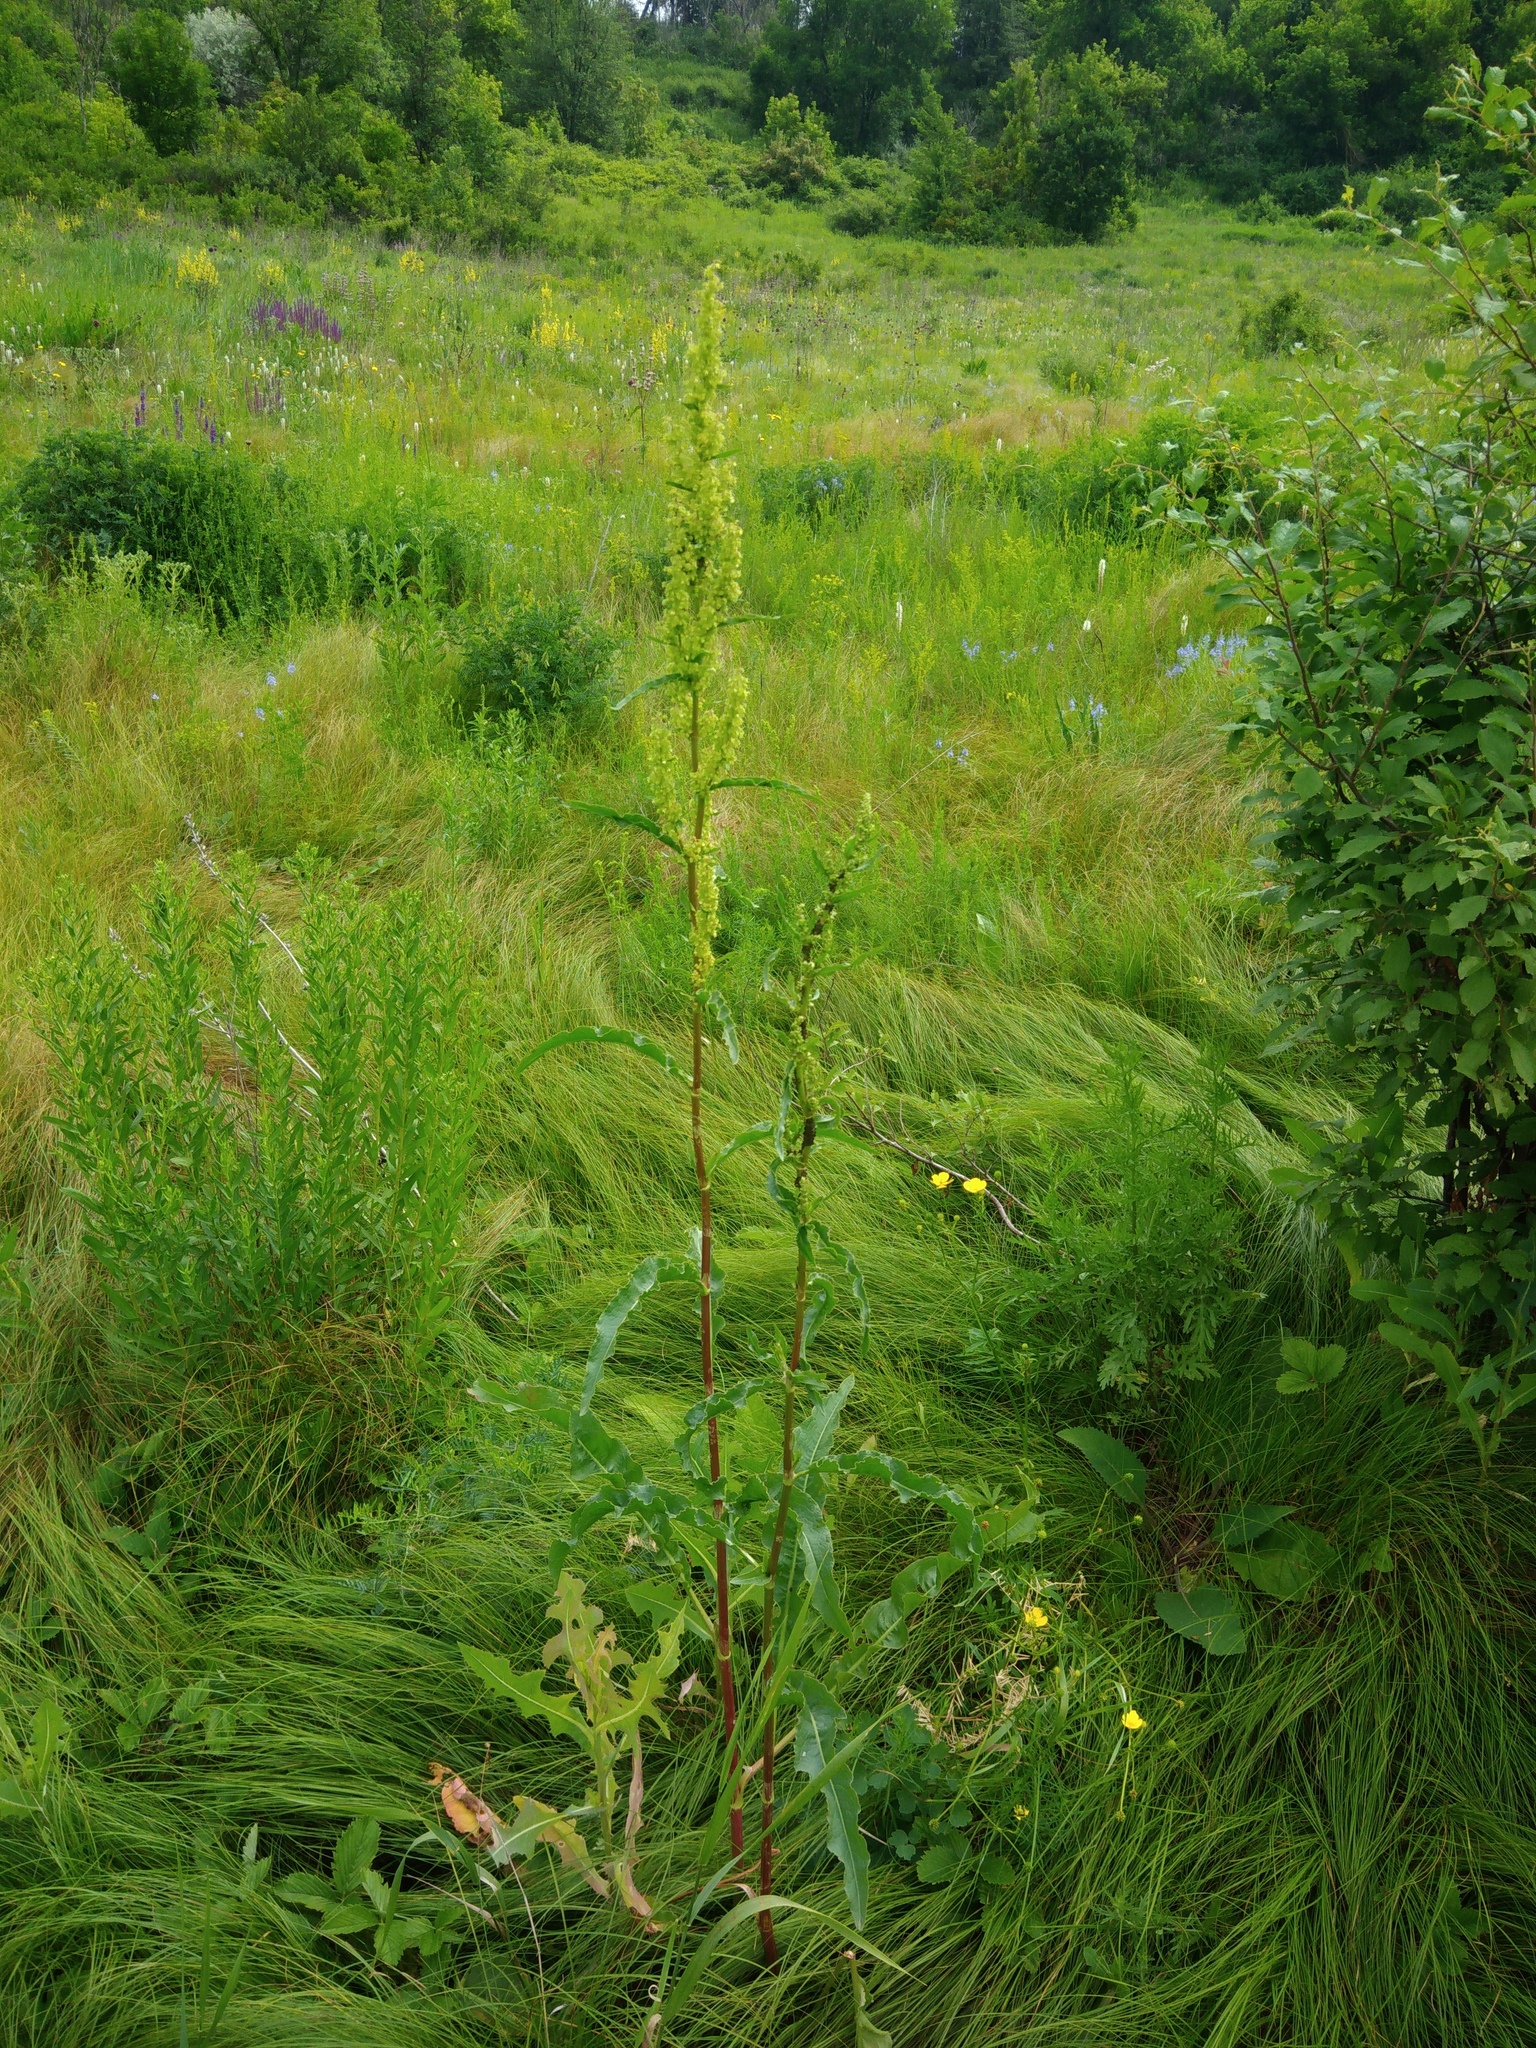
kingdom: Plantae
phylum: Tracheophyta
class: Magnoliopsida
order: Caryophyllales
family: Polygonaceae
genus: Rumex
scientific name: Rumex crispus
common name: Curled dock
